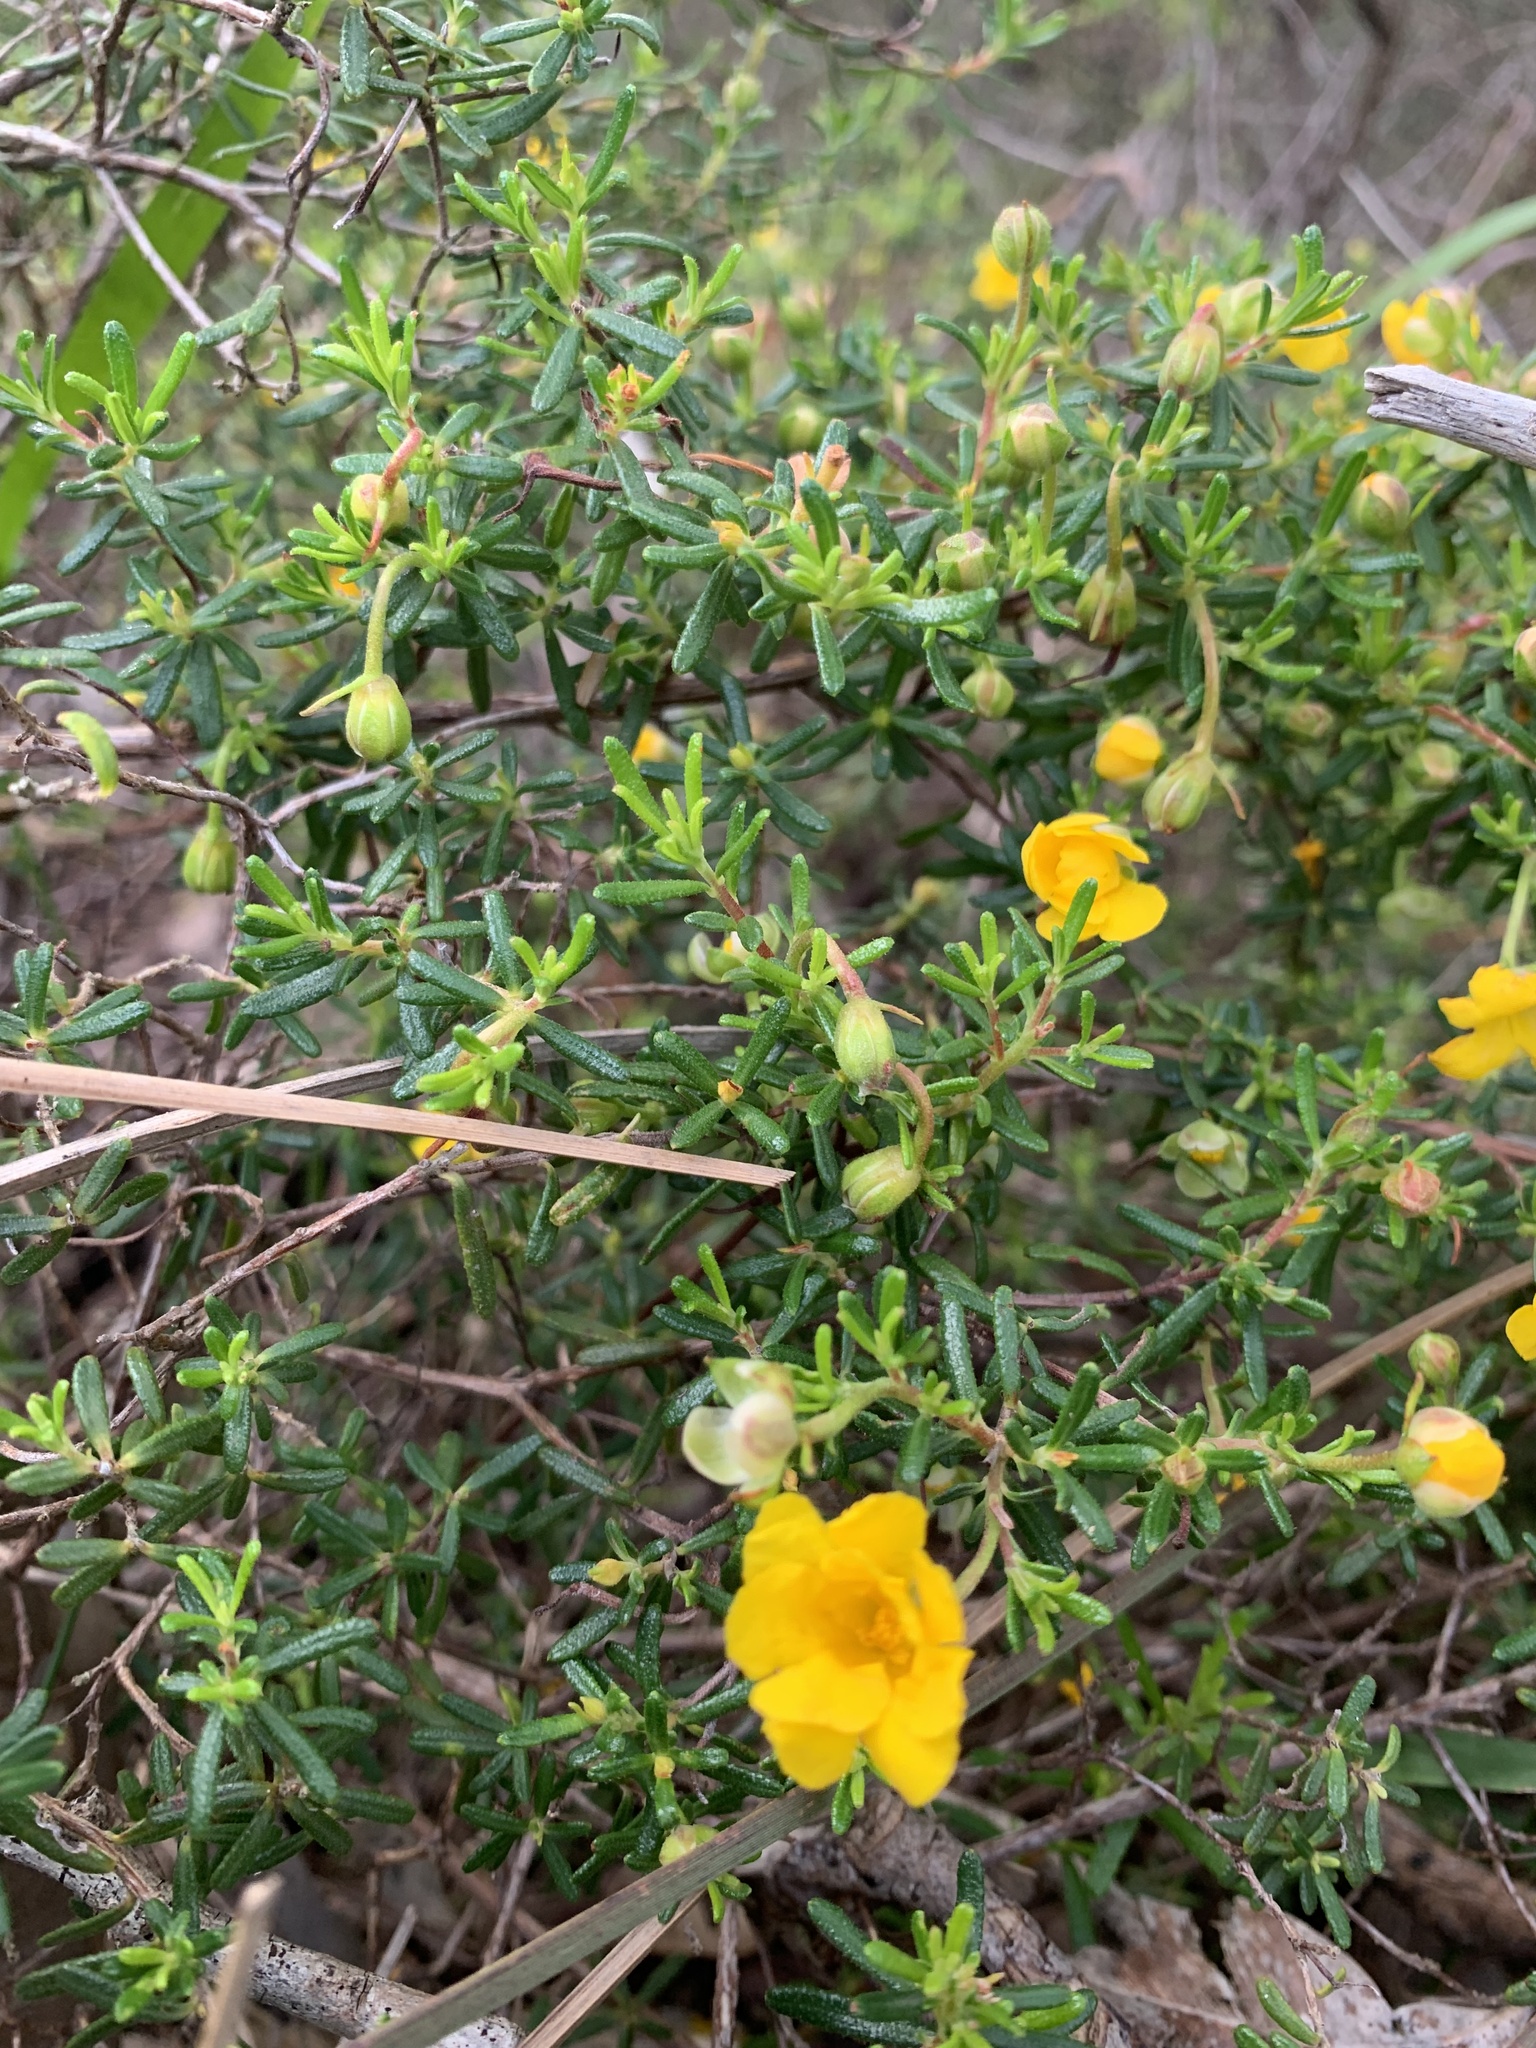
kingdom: Plantae
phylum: Tracheophyta
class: Magnoliopsida
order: Dilleniales
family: Dilleniaceae
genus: Hibbertia
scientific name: Hibbertia hypericoides
